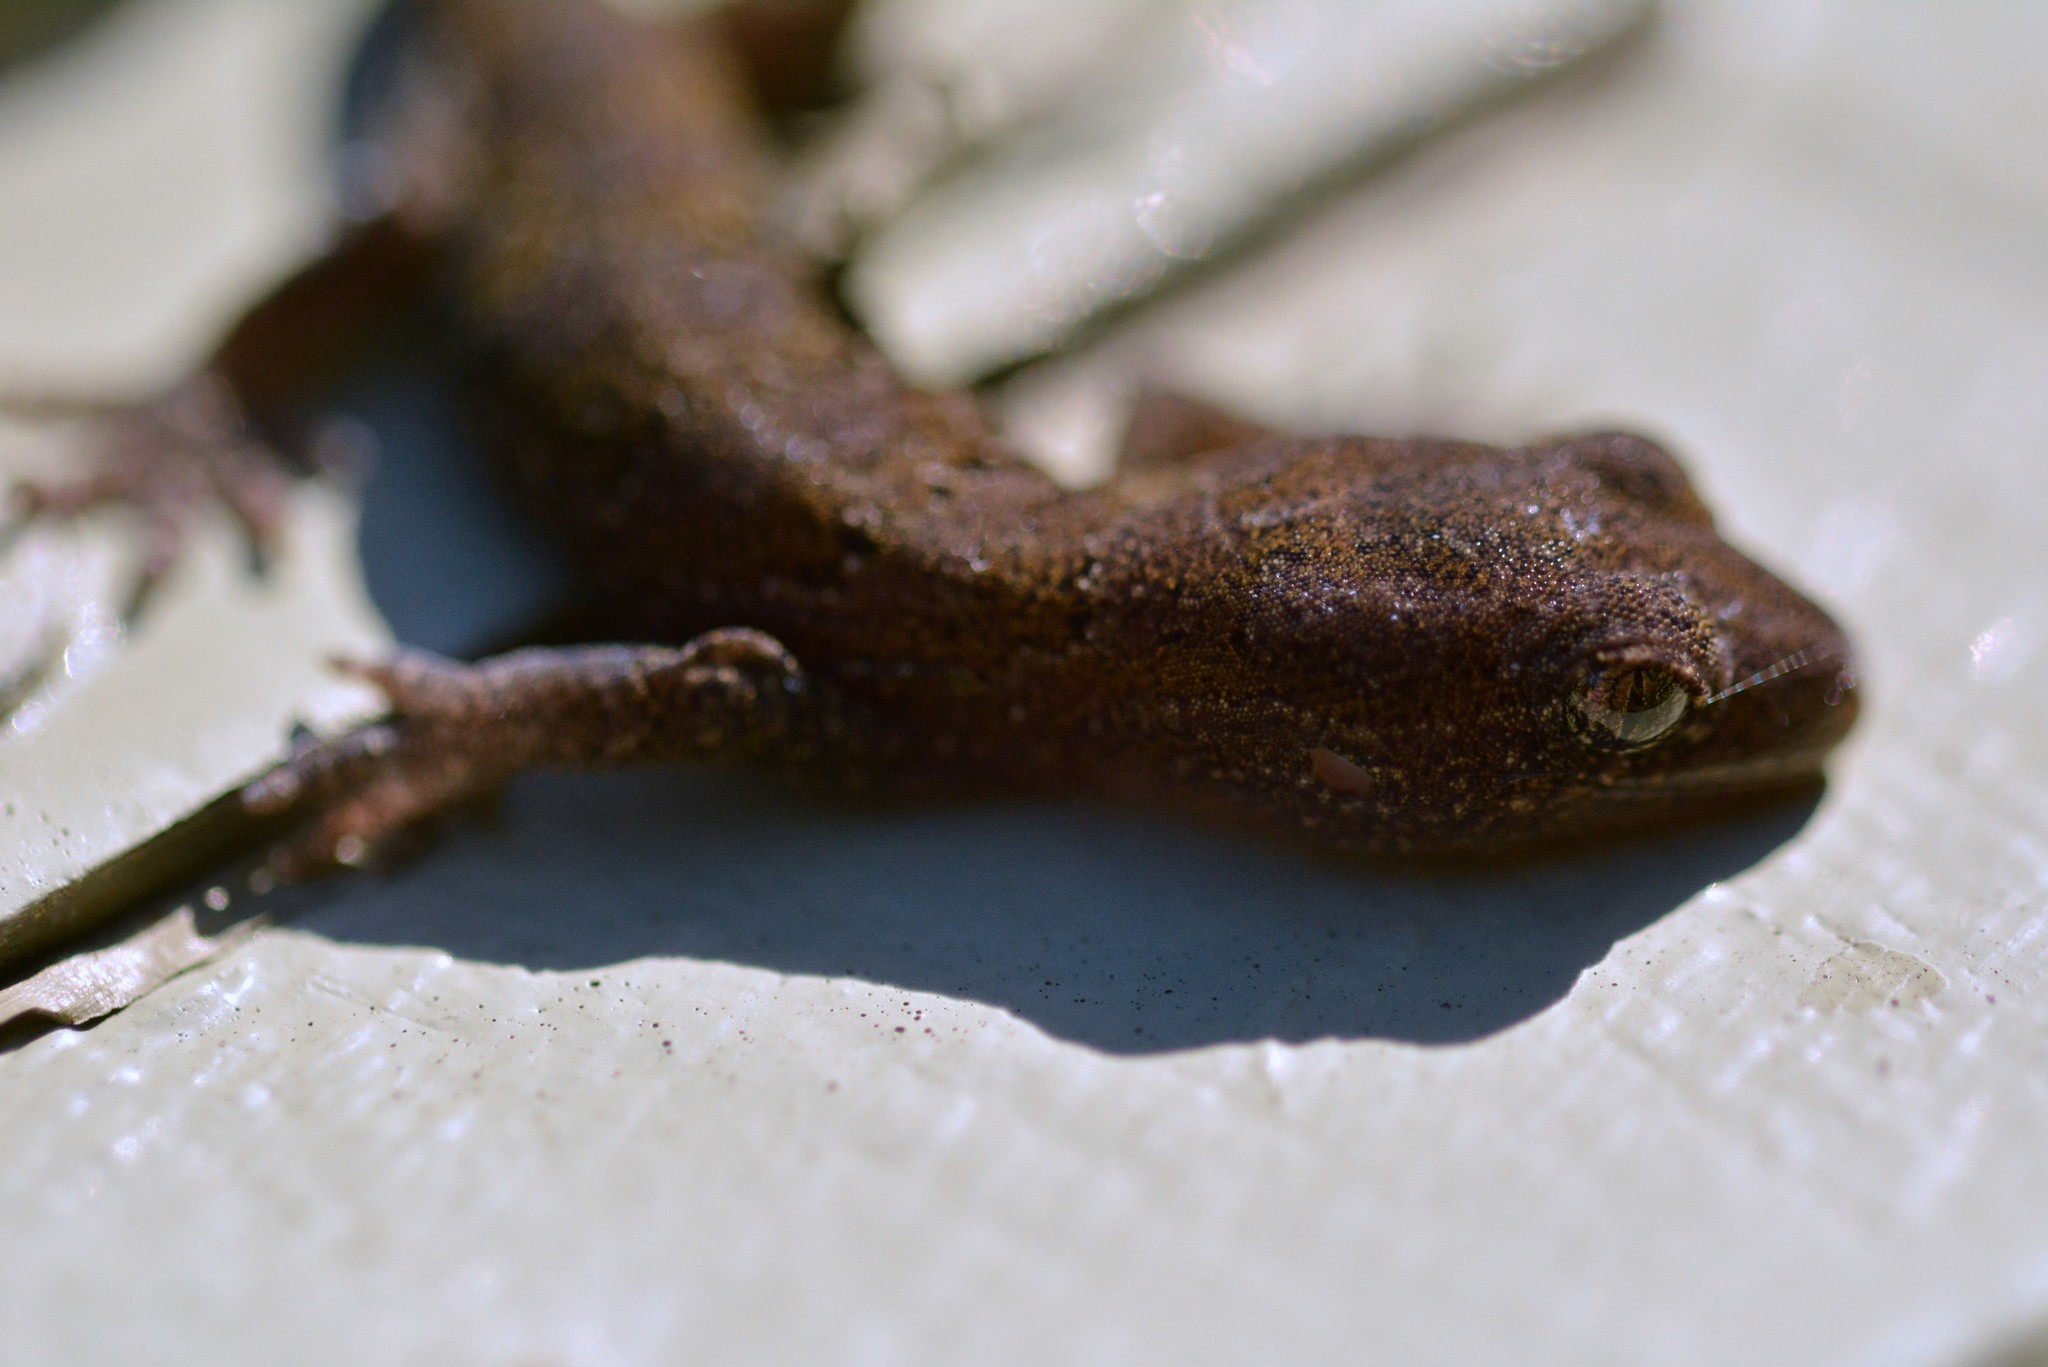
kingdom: Animalia
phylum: Chordata
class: Squamata
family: Diplodactylidae
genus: Woodworthia
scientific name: Woodworthia maculata
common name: Raukawa gecko
